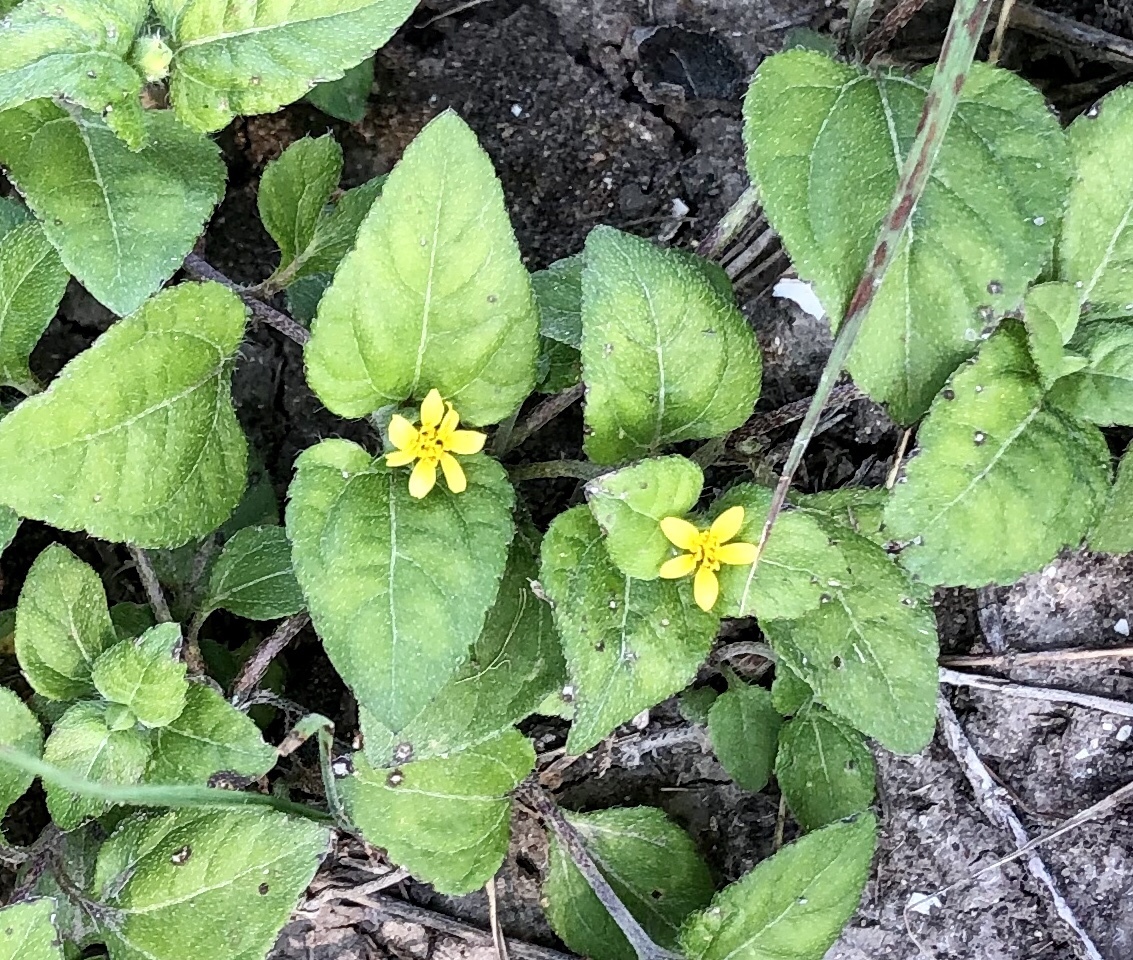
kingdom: Plantae
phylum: Tracheophyta
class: Magnoliopsida
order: Asterales
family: Asteraceae
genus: Calyptocarpus
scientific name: Calyptocarpus vialis
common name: Straggler daisy
